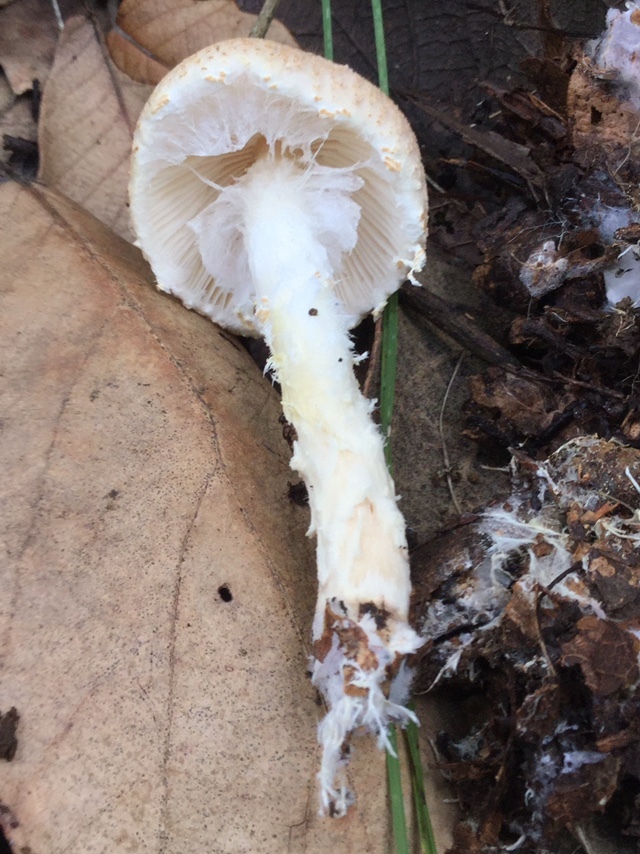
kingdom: Fungi
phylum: Basidiomycota
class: Agaricomycetes
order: Agaricales
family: Agaricaceae
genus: Lepiota
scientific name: Lepiota magnispora
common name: Yellowfoot dapperling
